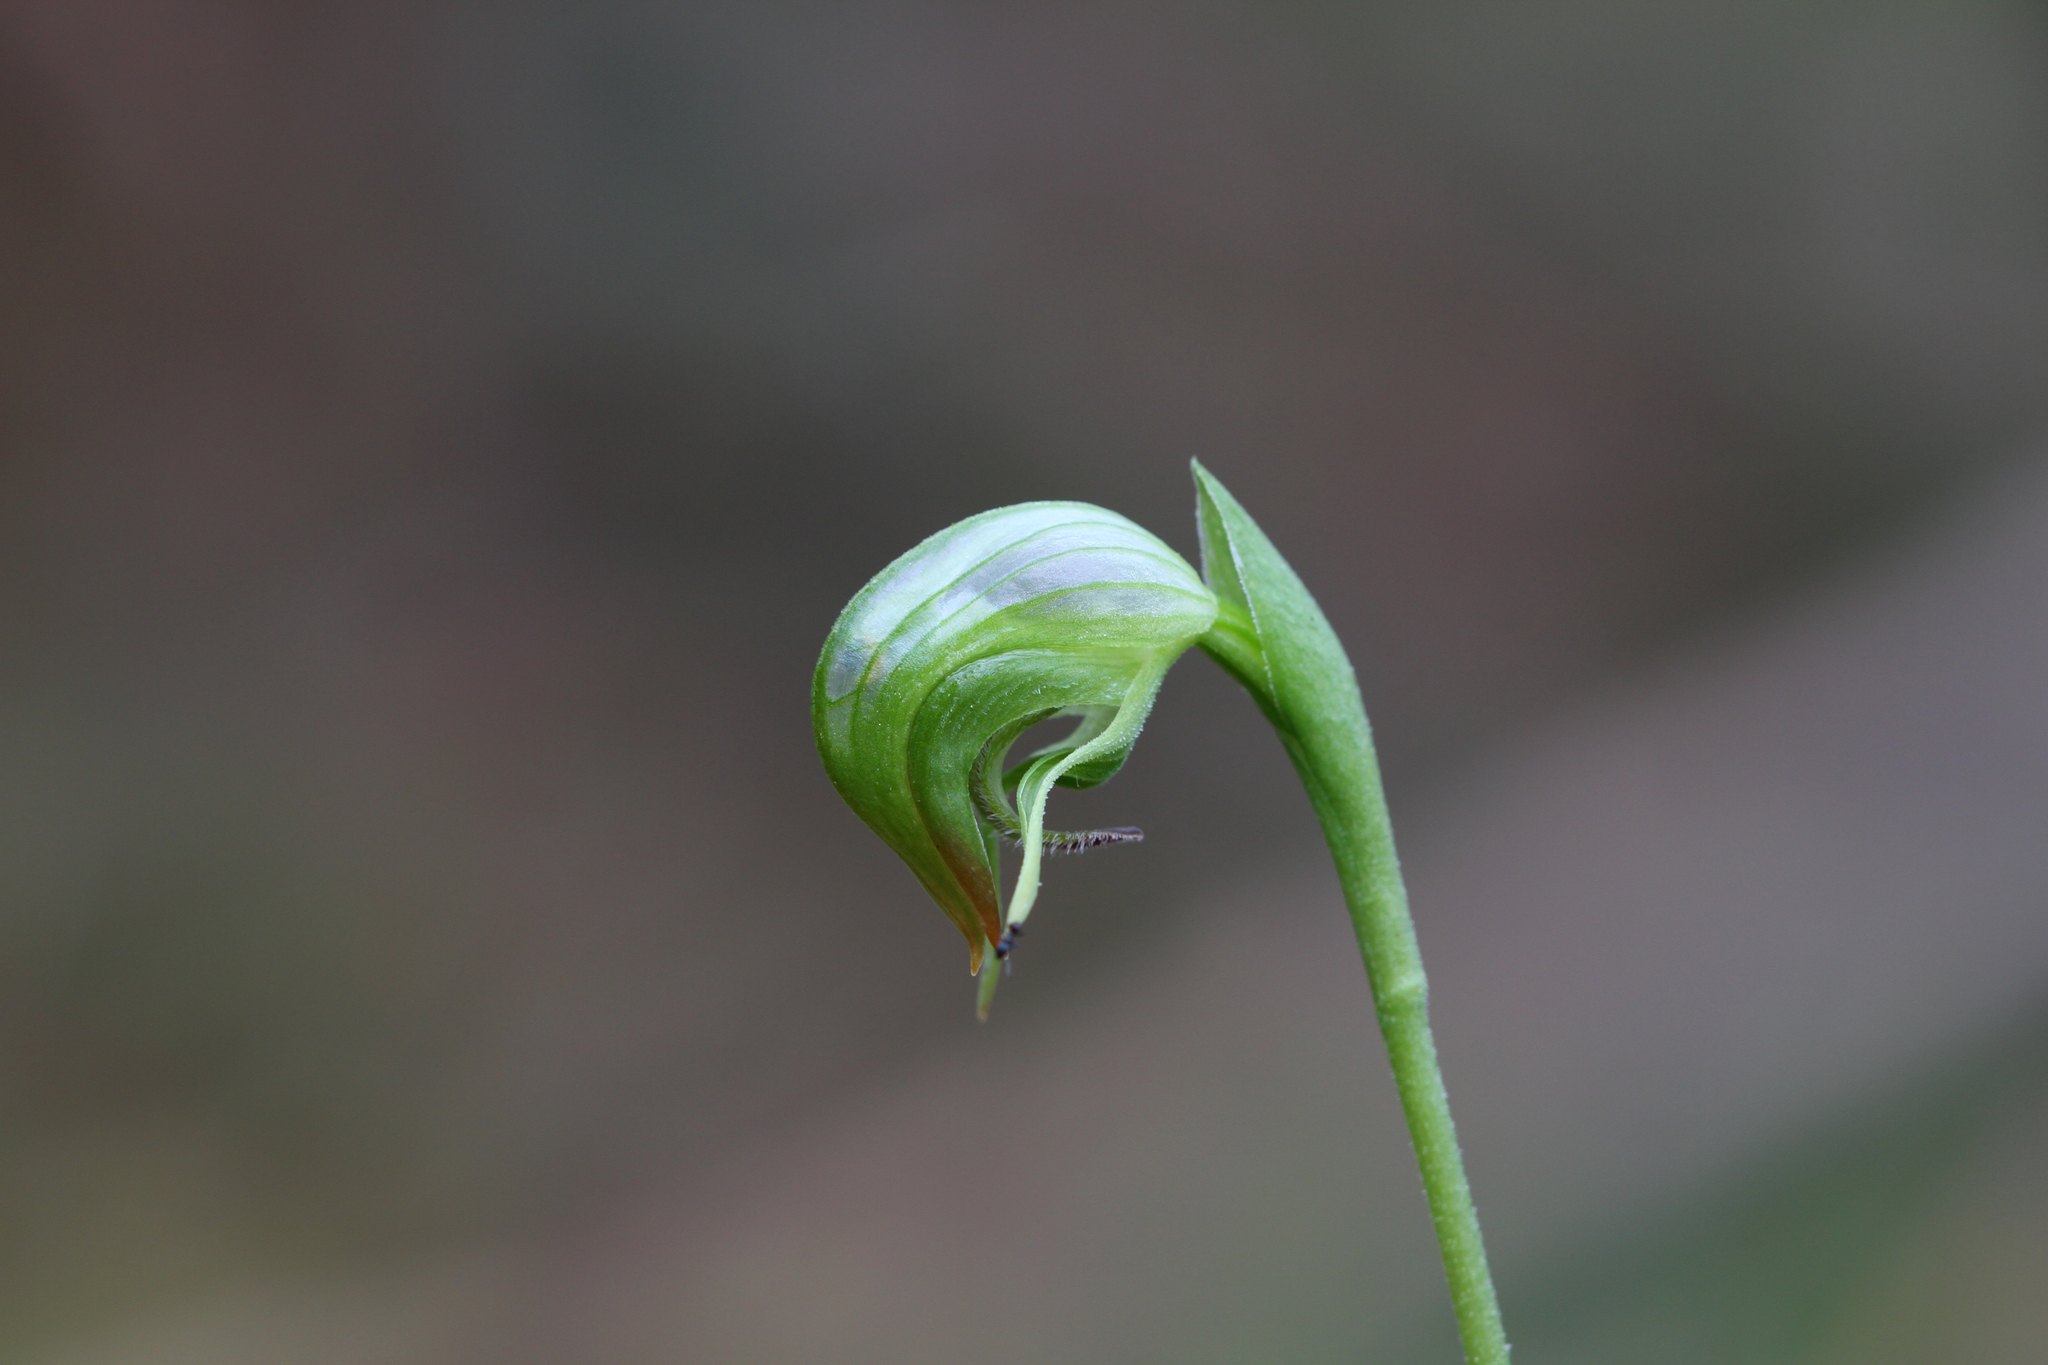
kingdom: Plantae
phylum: Tracheophyta
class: Liliopsida
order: Asparagales
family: Orchidaceae
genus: Pterostylis
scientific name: Pterostylis nutans
